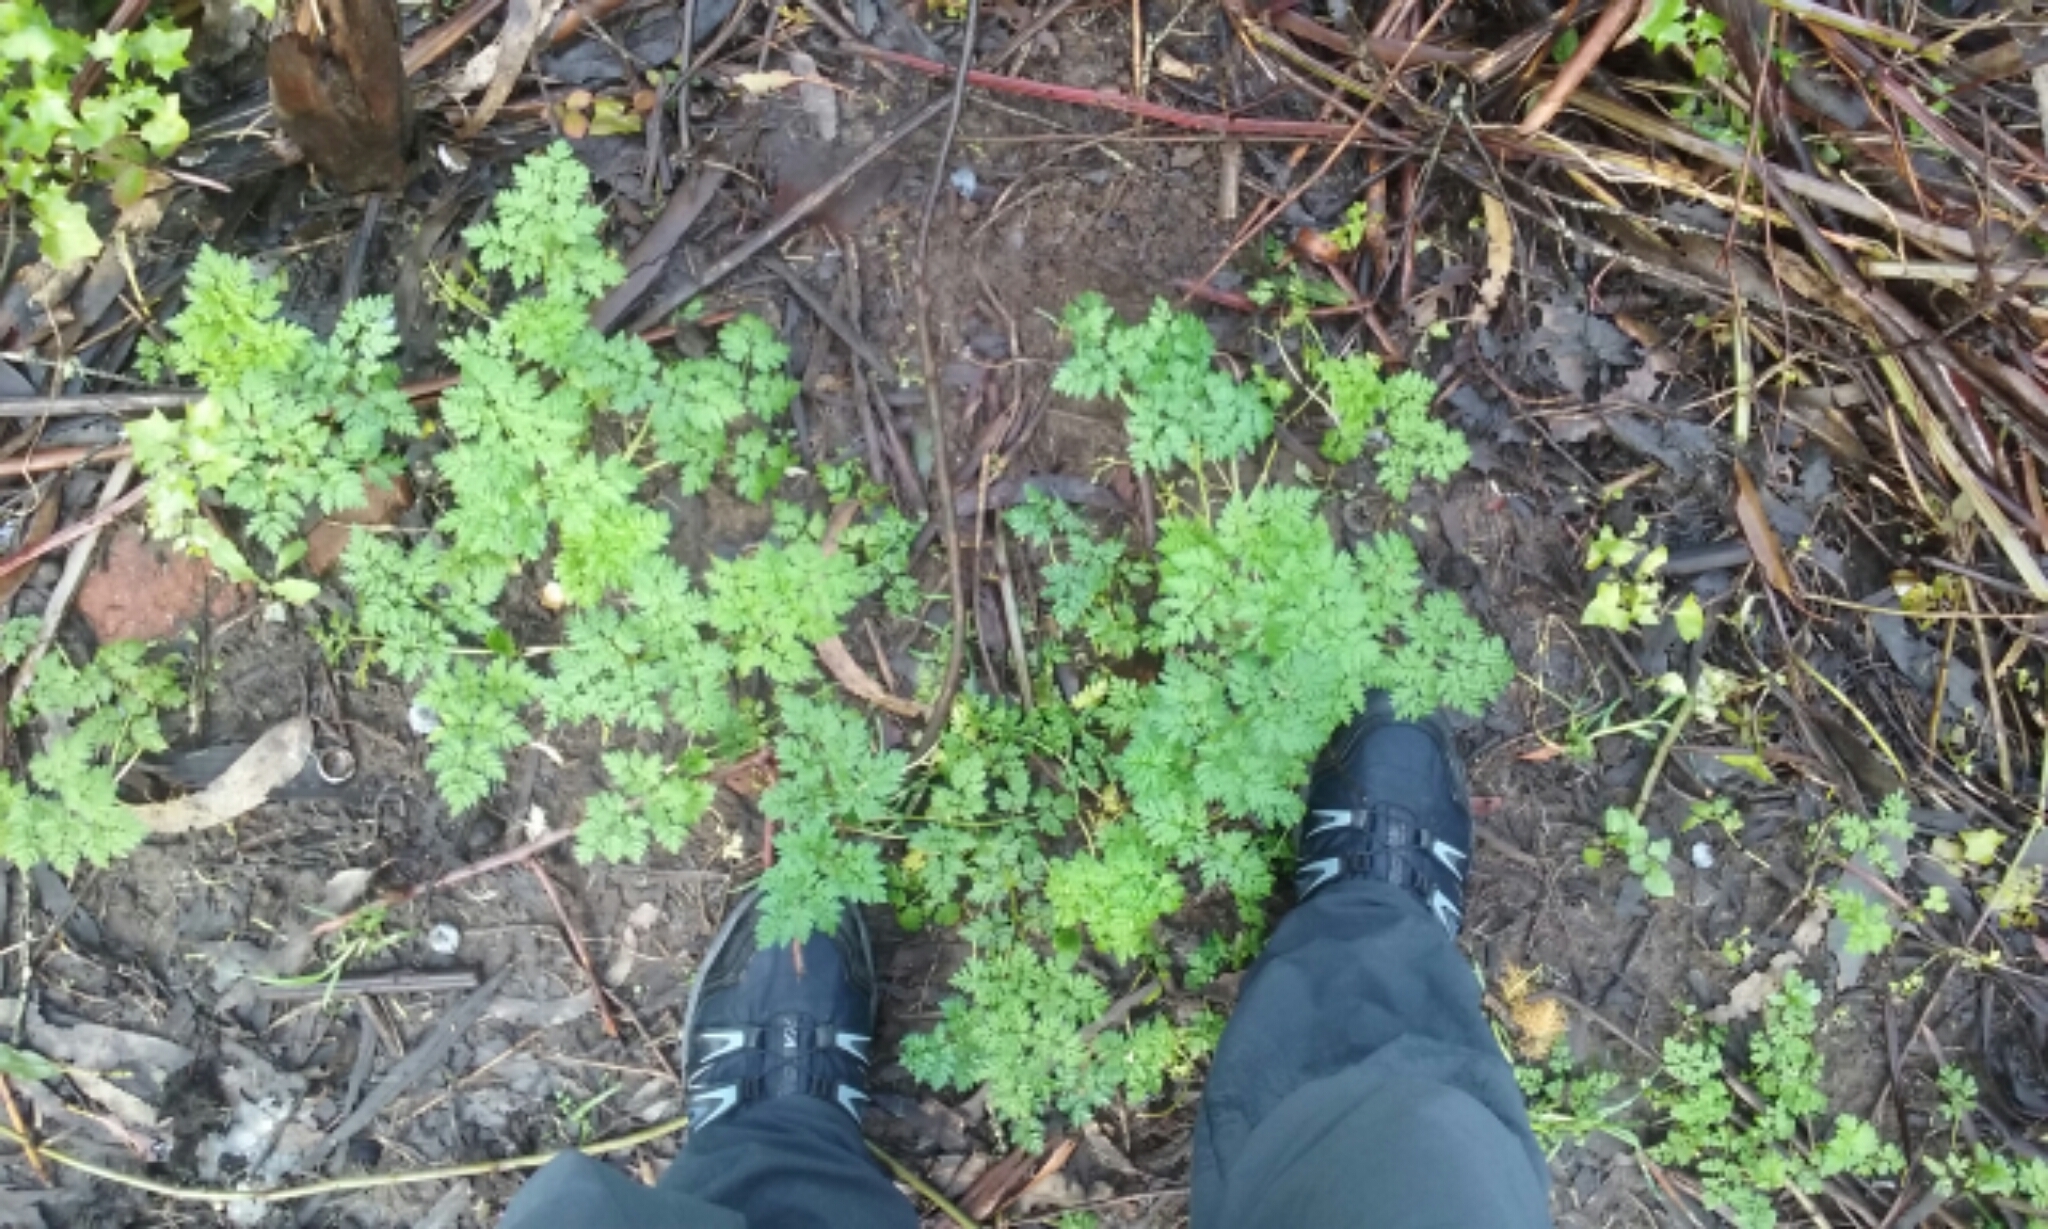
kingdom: Plantae
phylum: Tracheophyta
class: Magnoliopsida
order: Apiales
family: Apiaceae
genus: Conium
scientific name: Conium maculatum
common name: Hemlock
